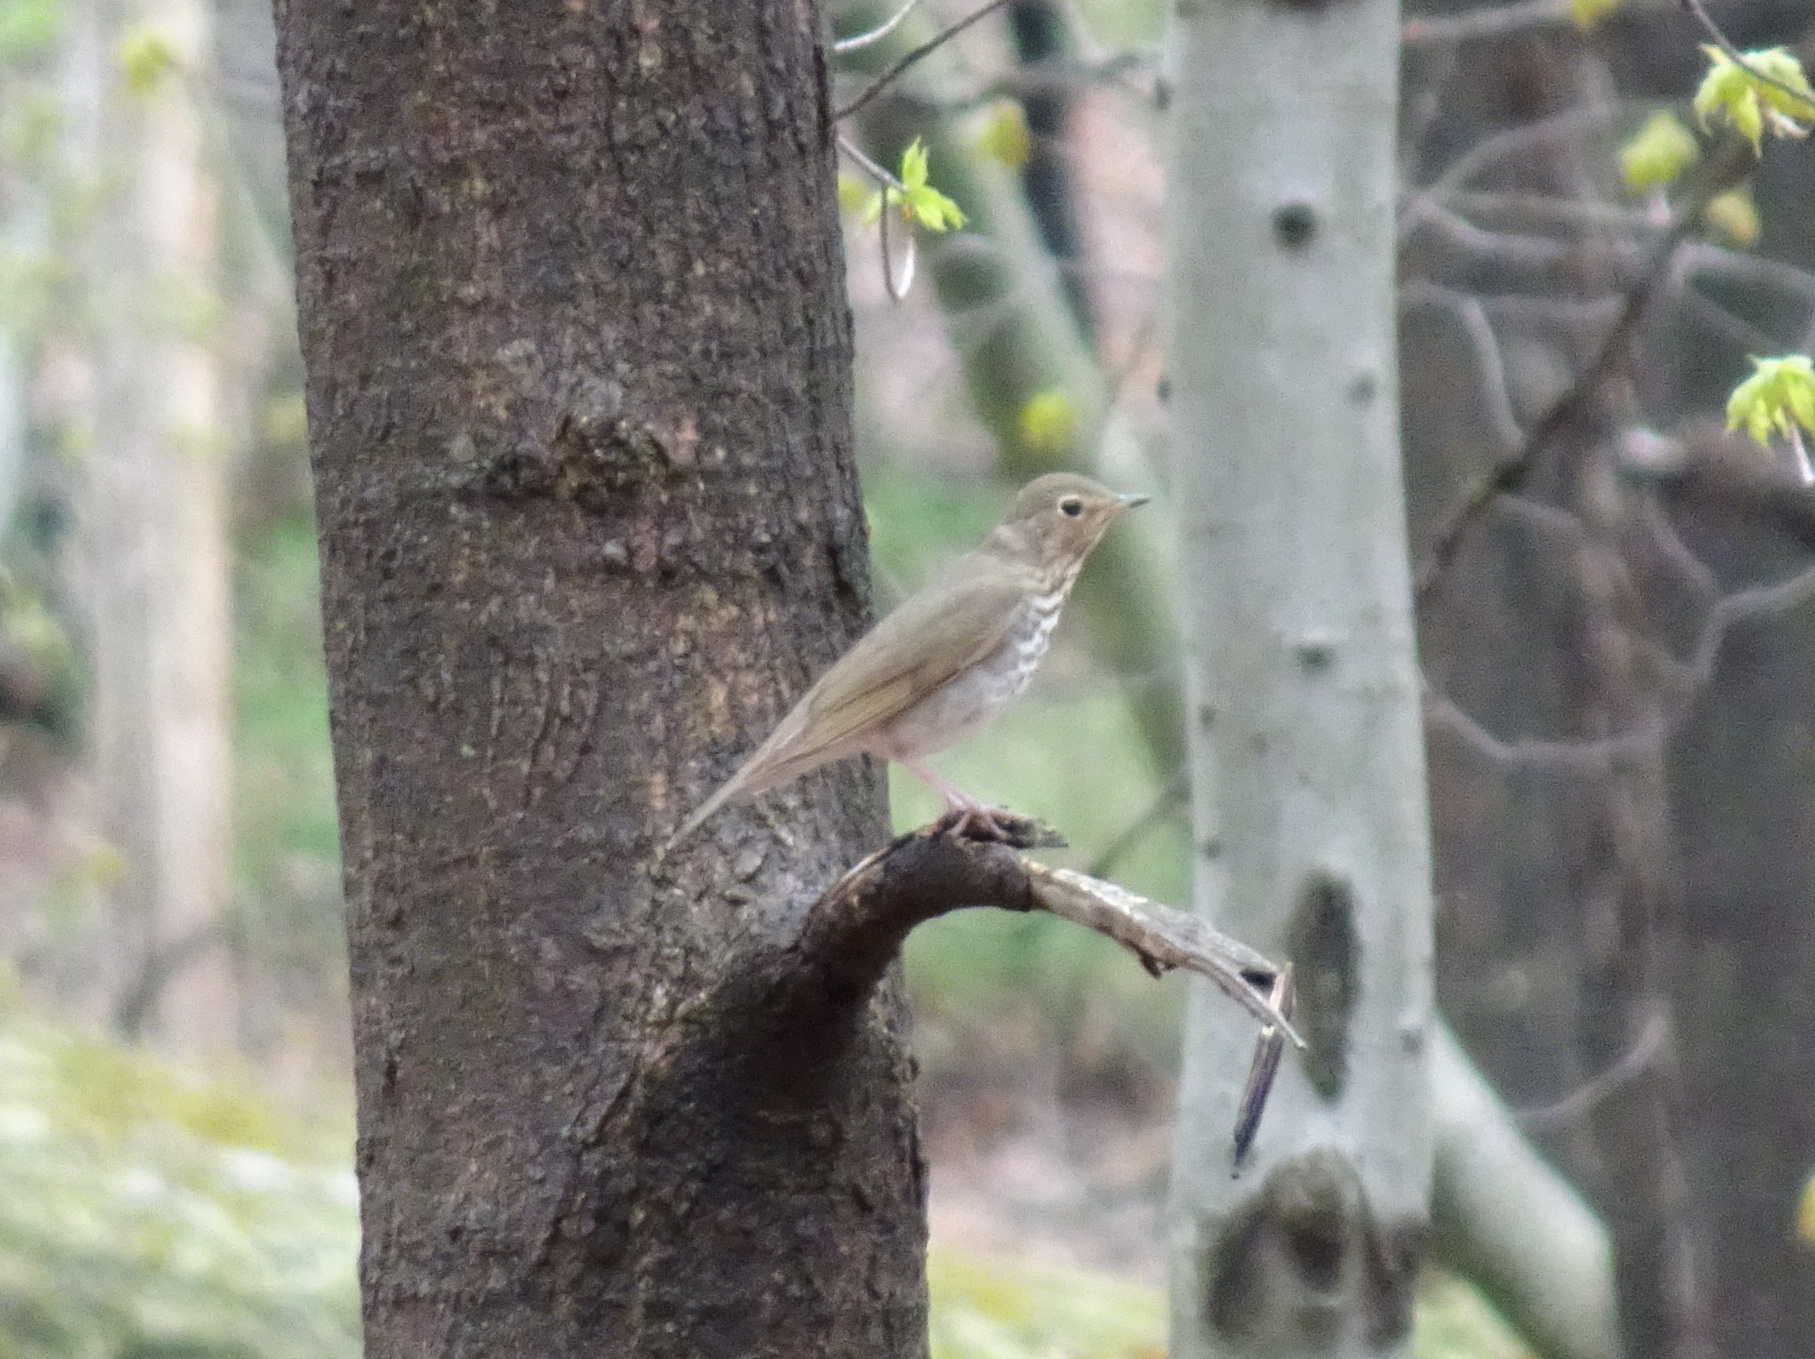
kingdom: Animalia
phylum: Chordata
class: Aves
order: Passeriformes
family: Turdidae
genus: Catharus
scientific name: Catharus ustulatus
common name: Swainson's thrush
